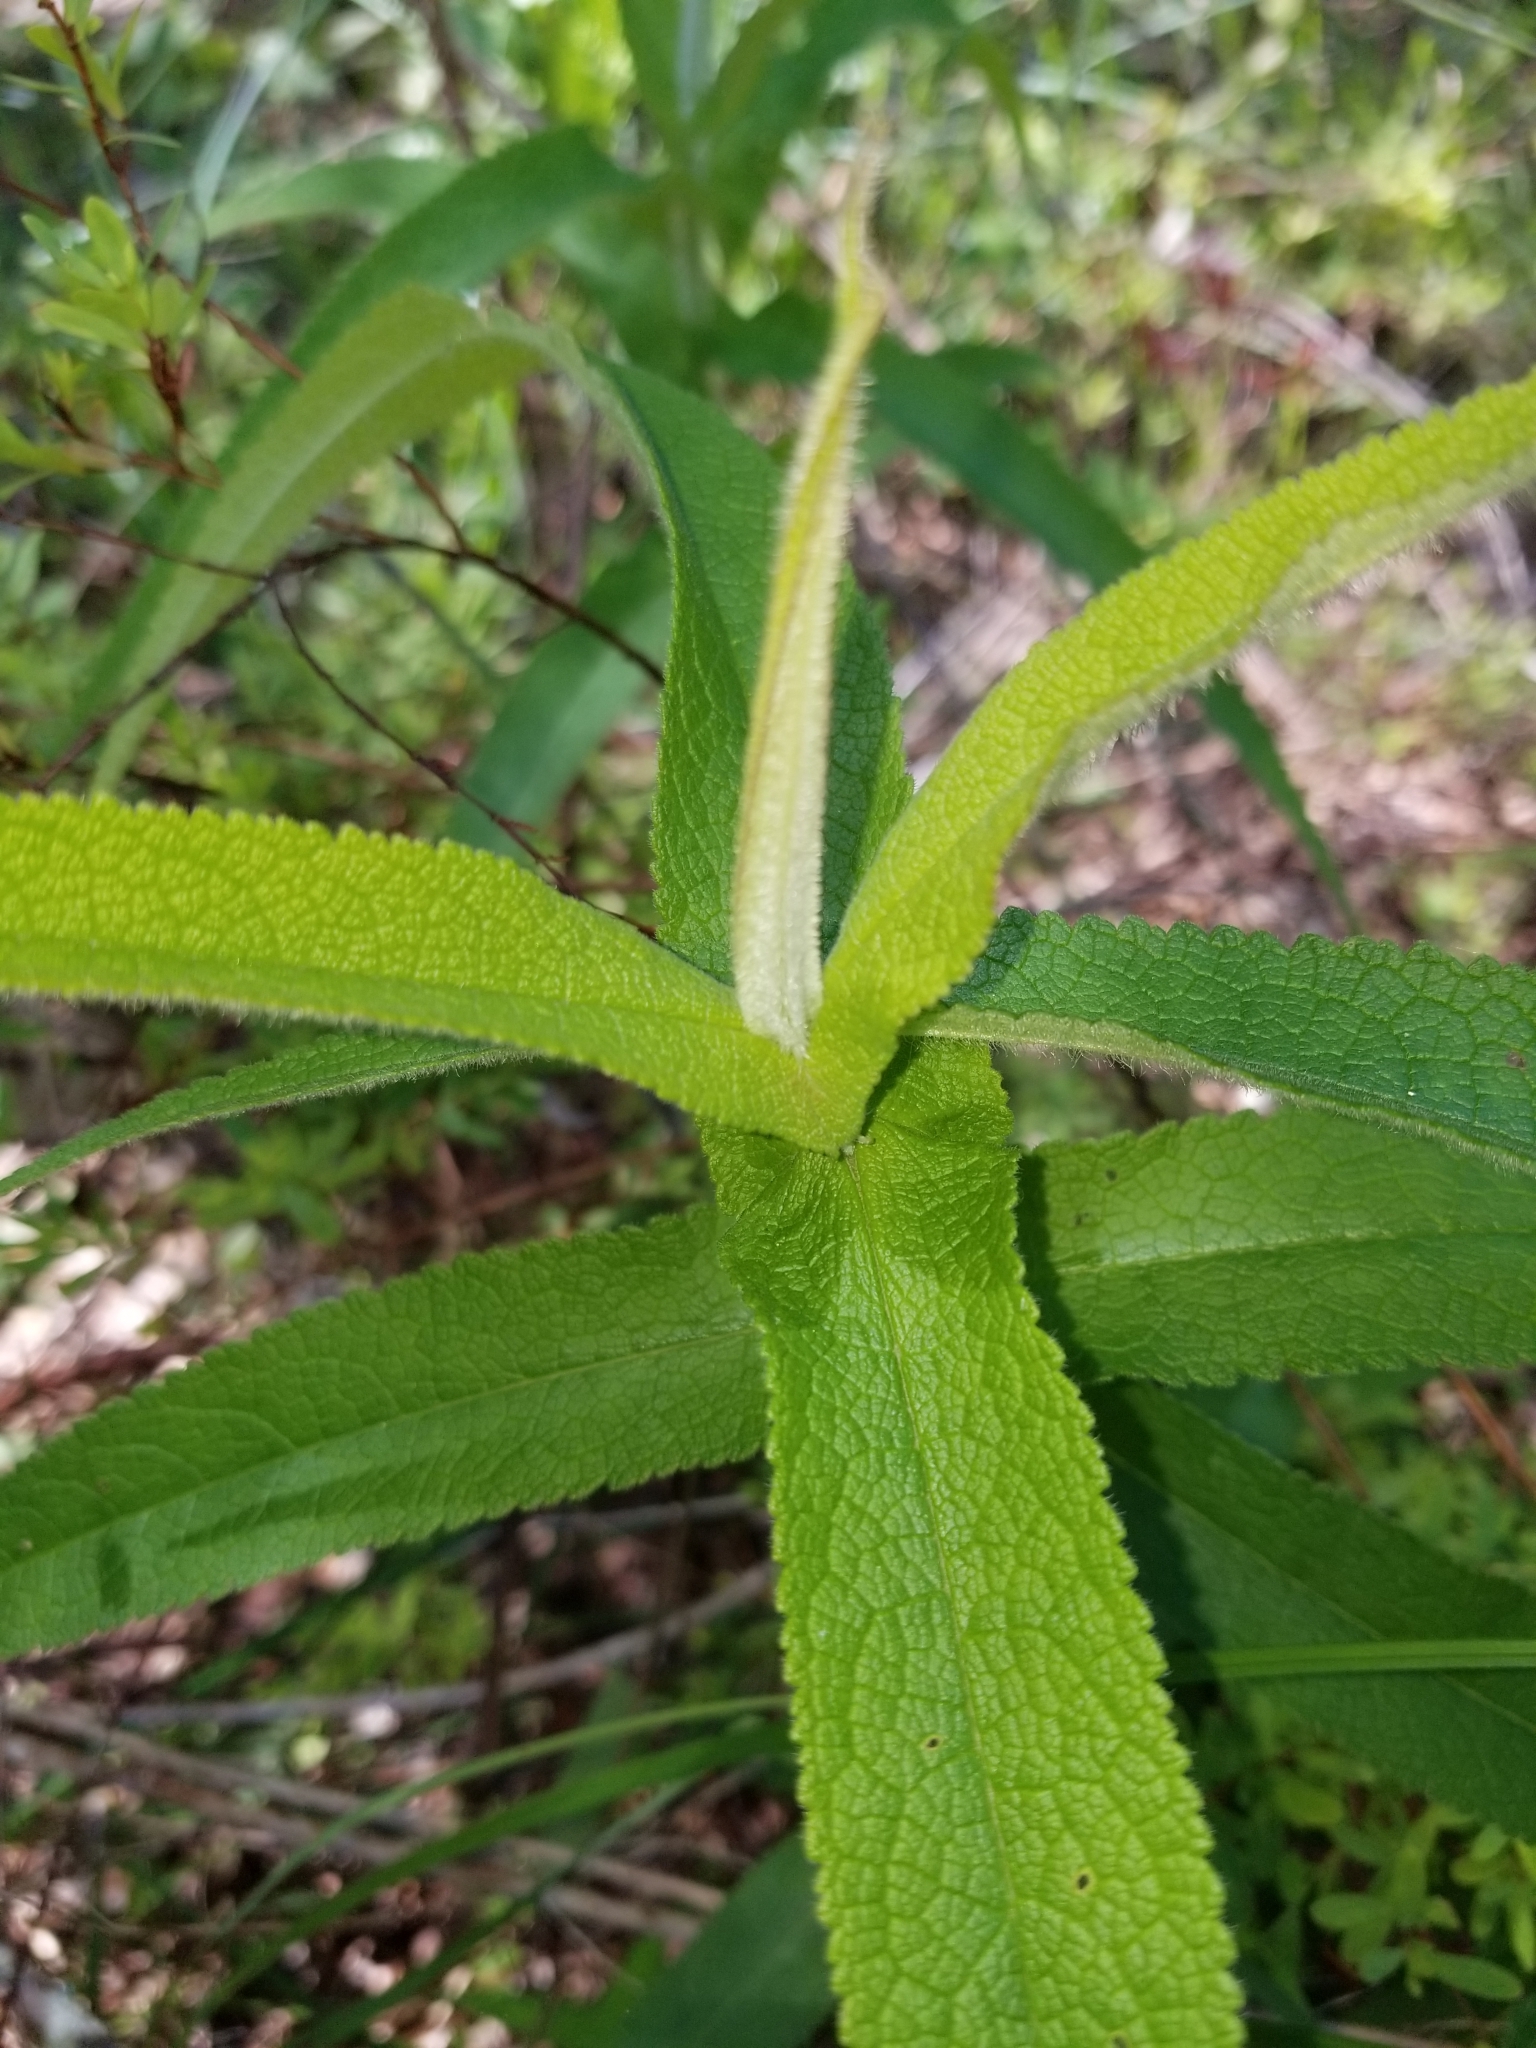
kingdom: Plantae
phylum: Tracheophyta
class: Magnoliopsida
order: Asterales
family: Asteraceae
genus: Eupatorium
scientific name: Eupatorium perfoliatum
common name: Boneset
